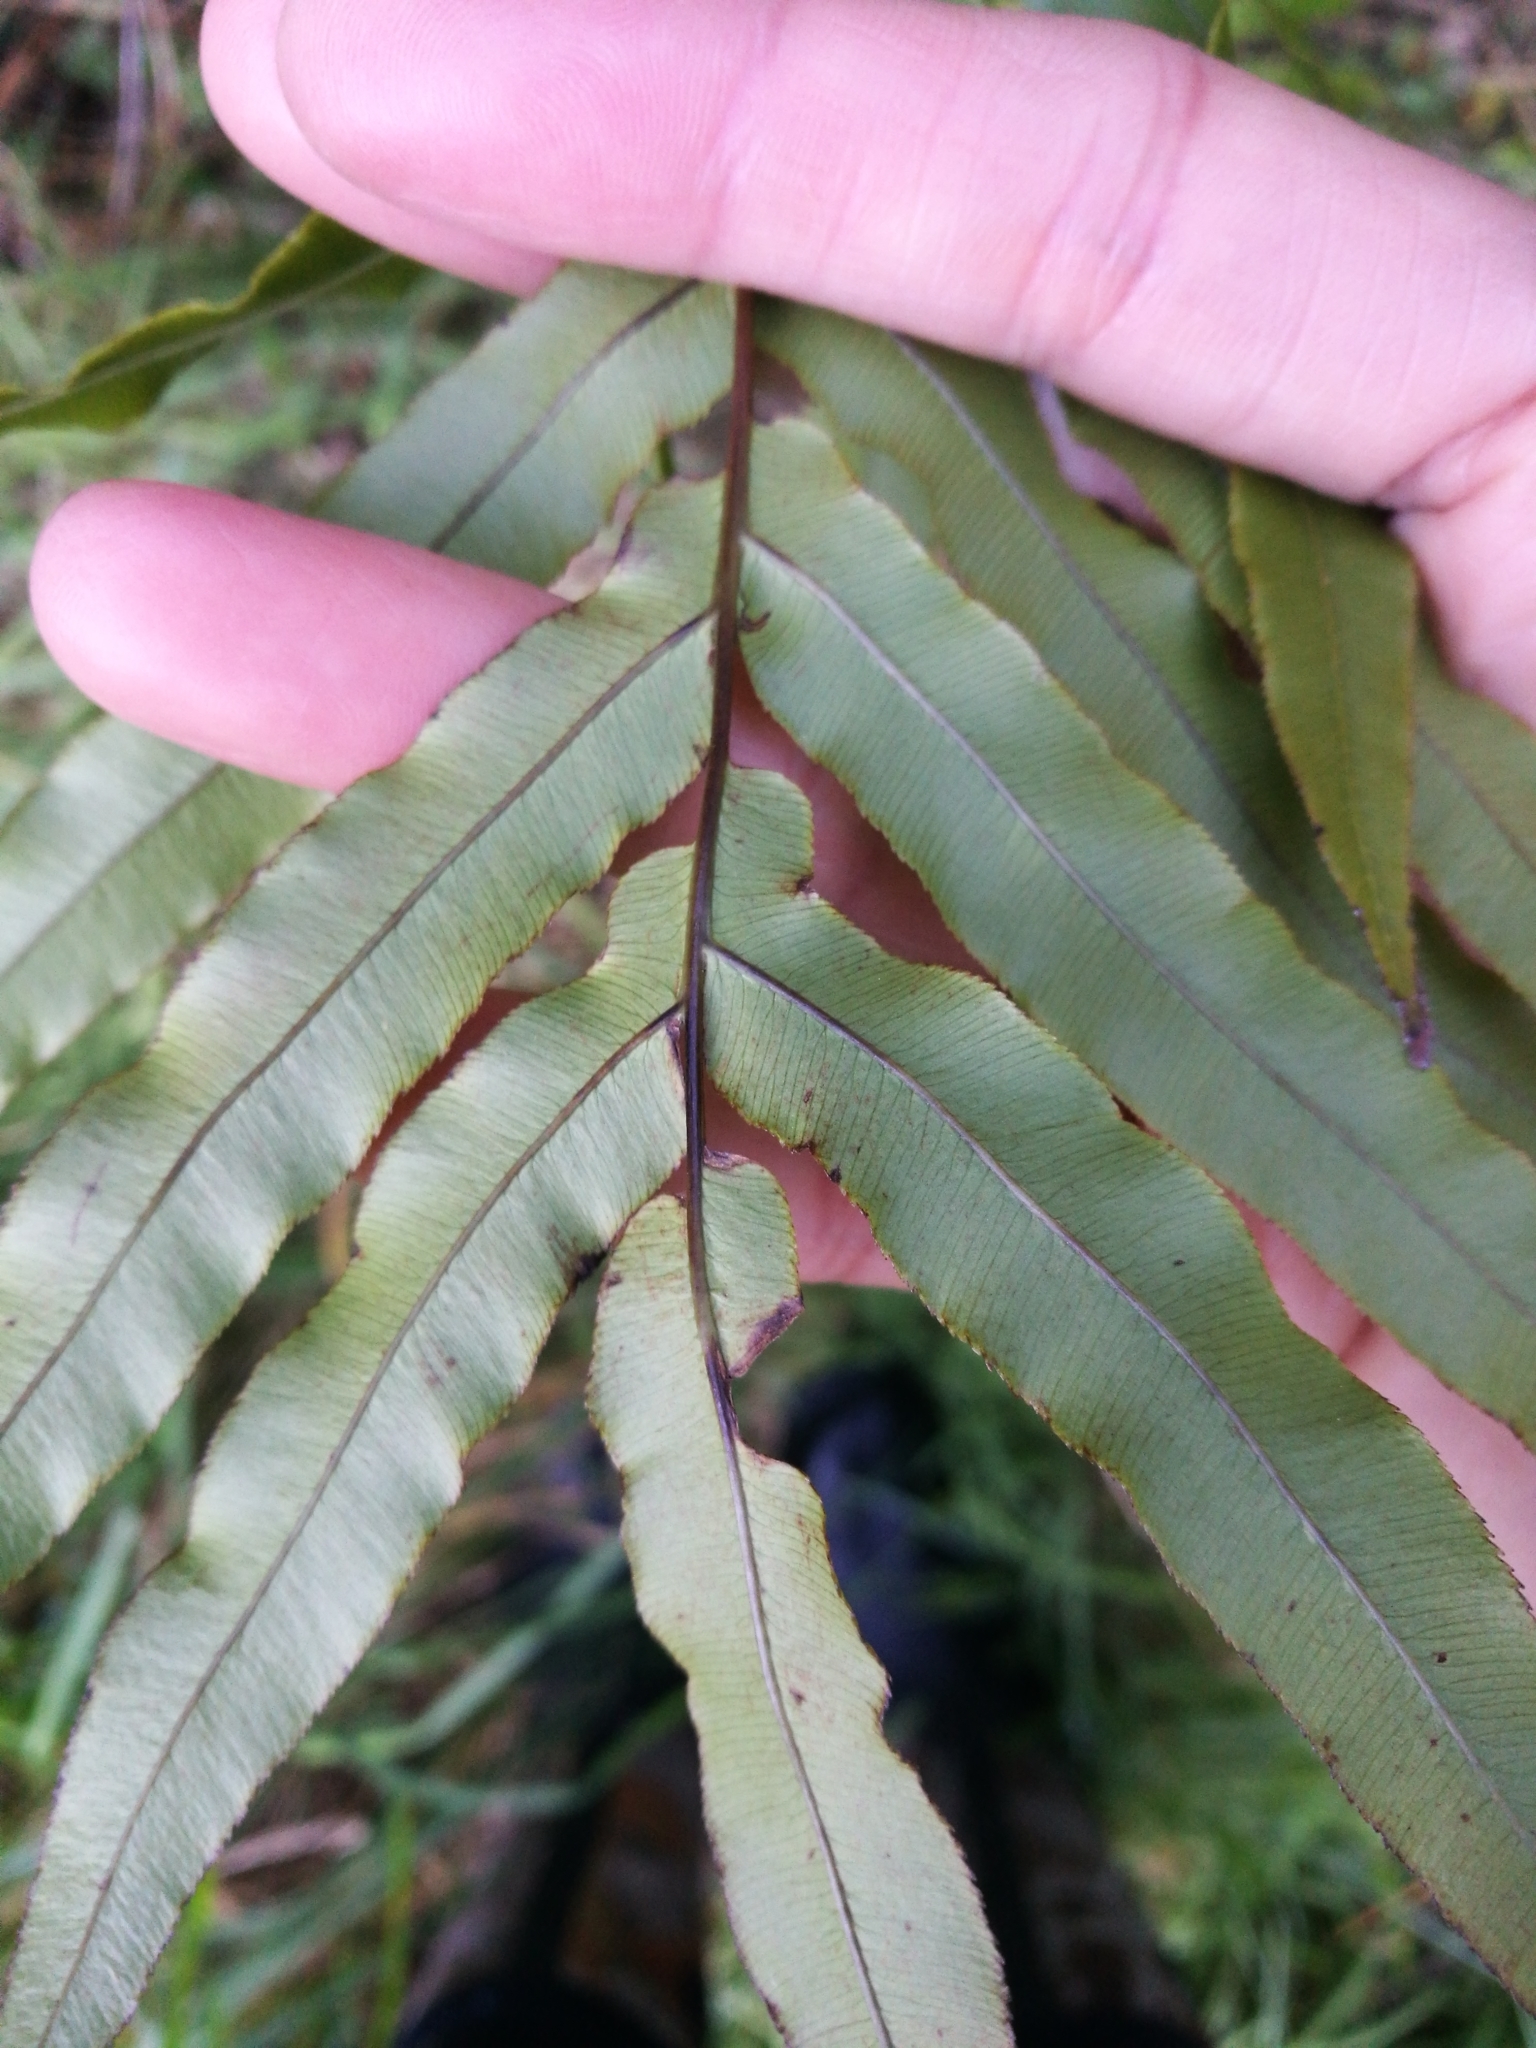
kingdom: Plantae
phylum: Tracheophyta
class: Polypodiopsida
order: Polypodiales
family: Blechnaceae
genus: Parablechnum
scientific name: Parablechnum novae-zelandiae
